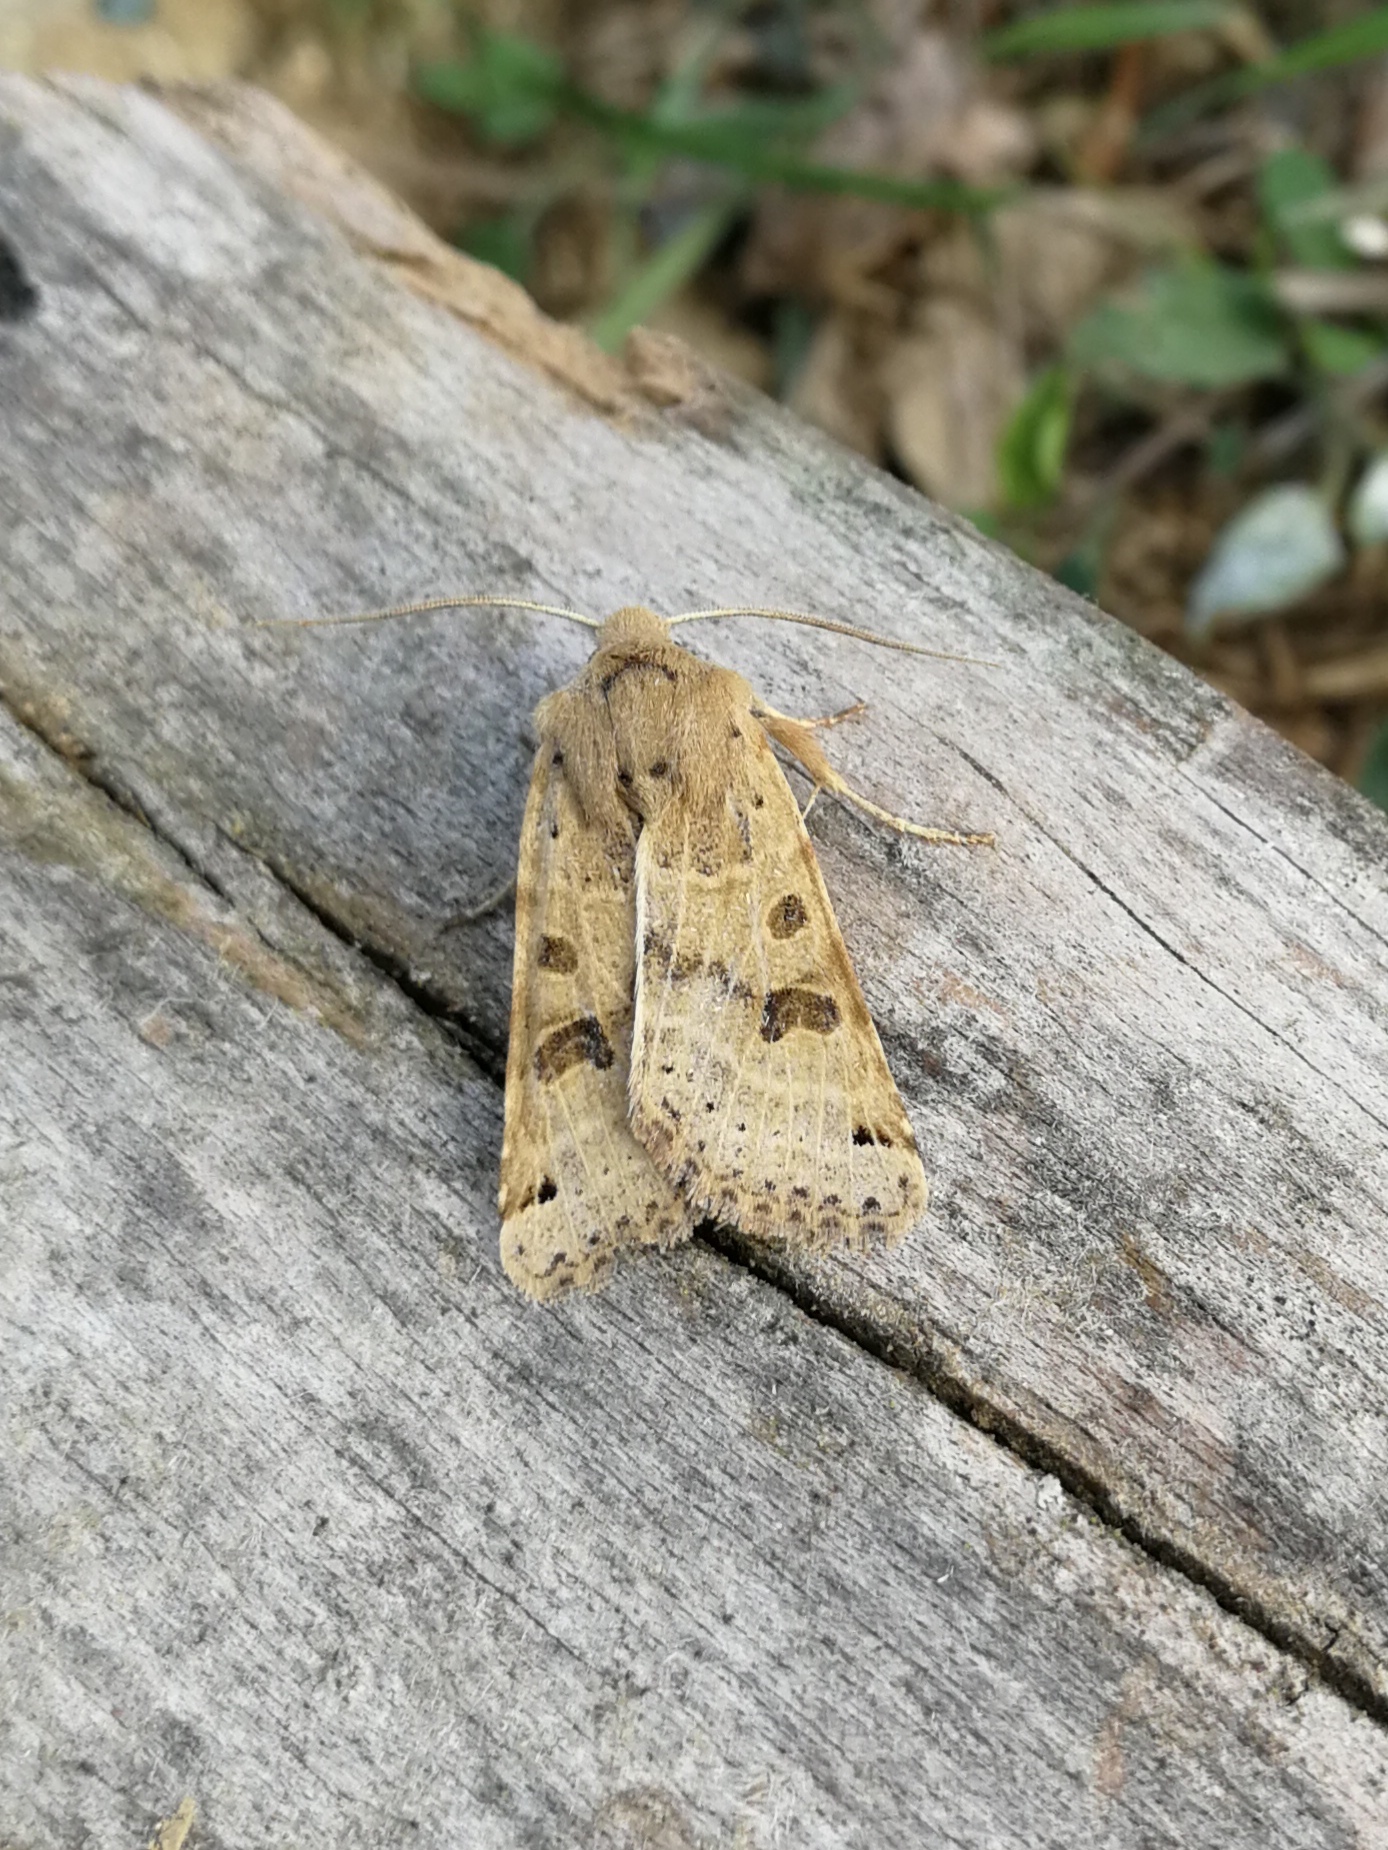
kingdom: Animalia
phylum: Arthropoda
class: Insecta
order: Lepidoptera
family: Noctuidae
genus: Agrochola
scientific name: Agrochola lunosa
